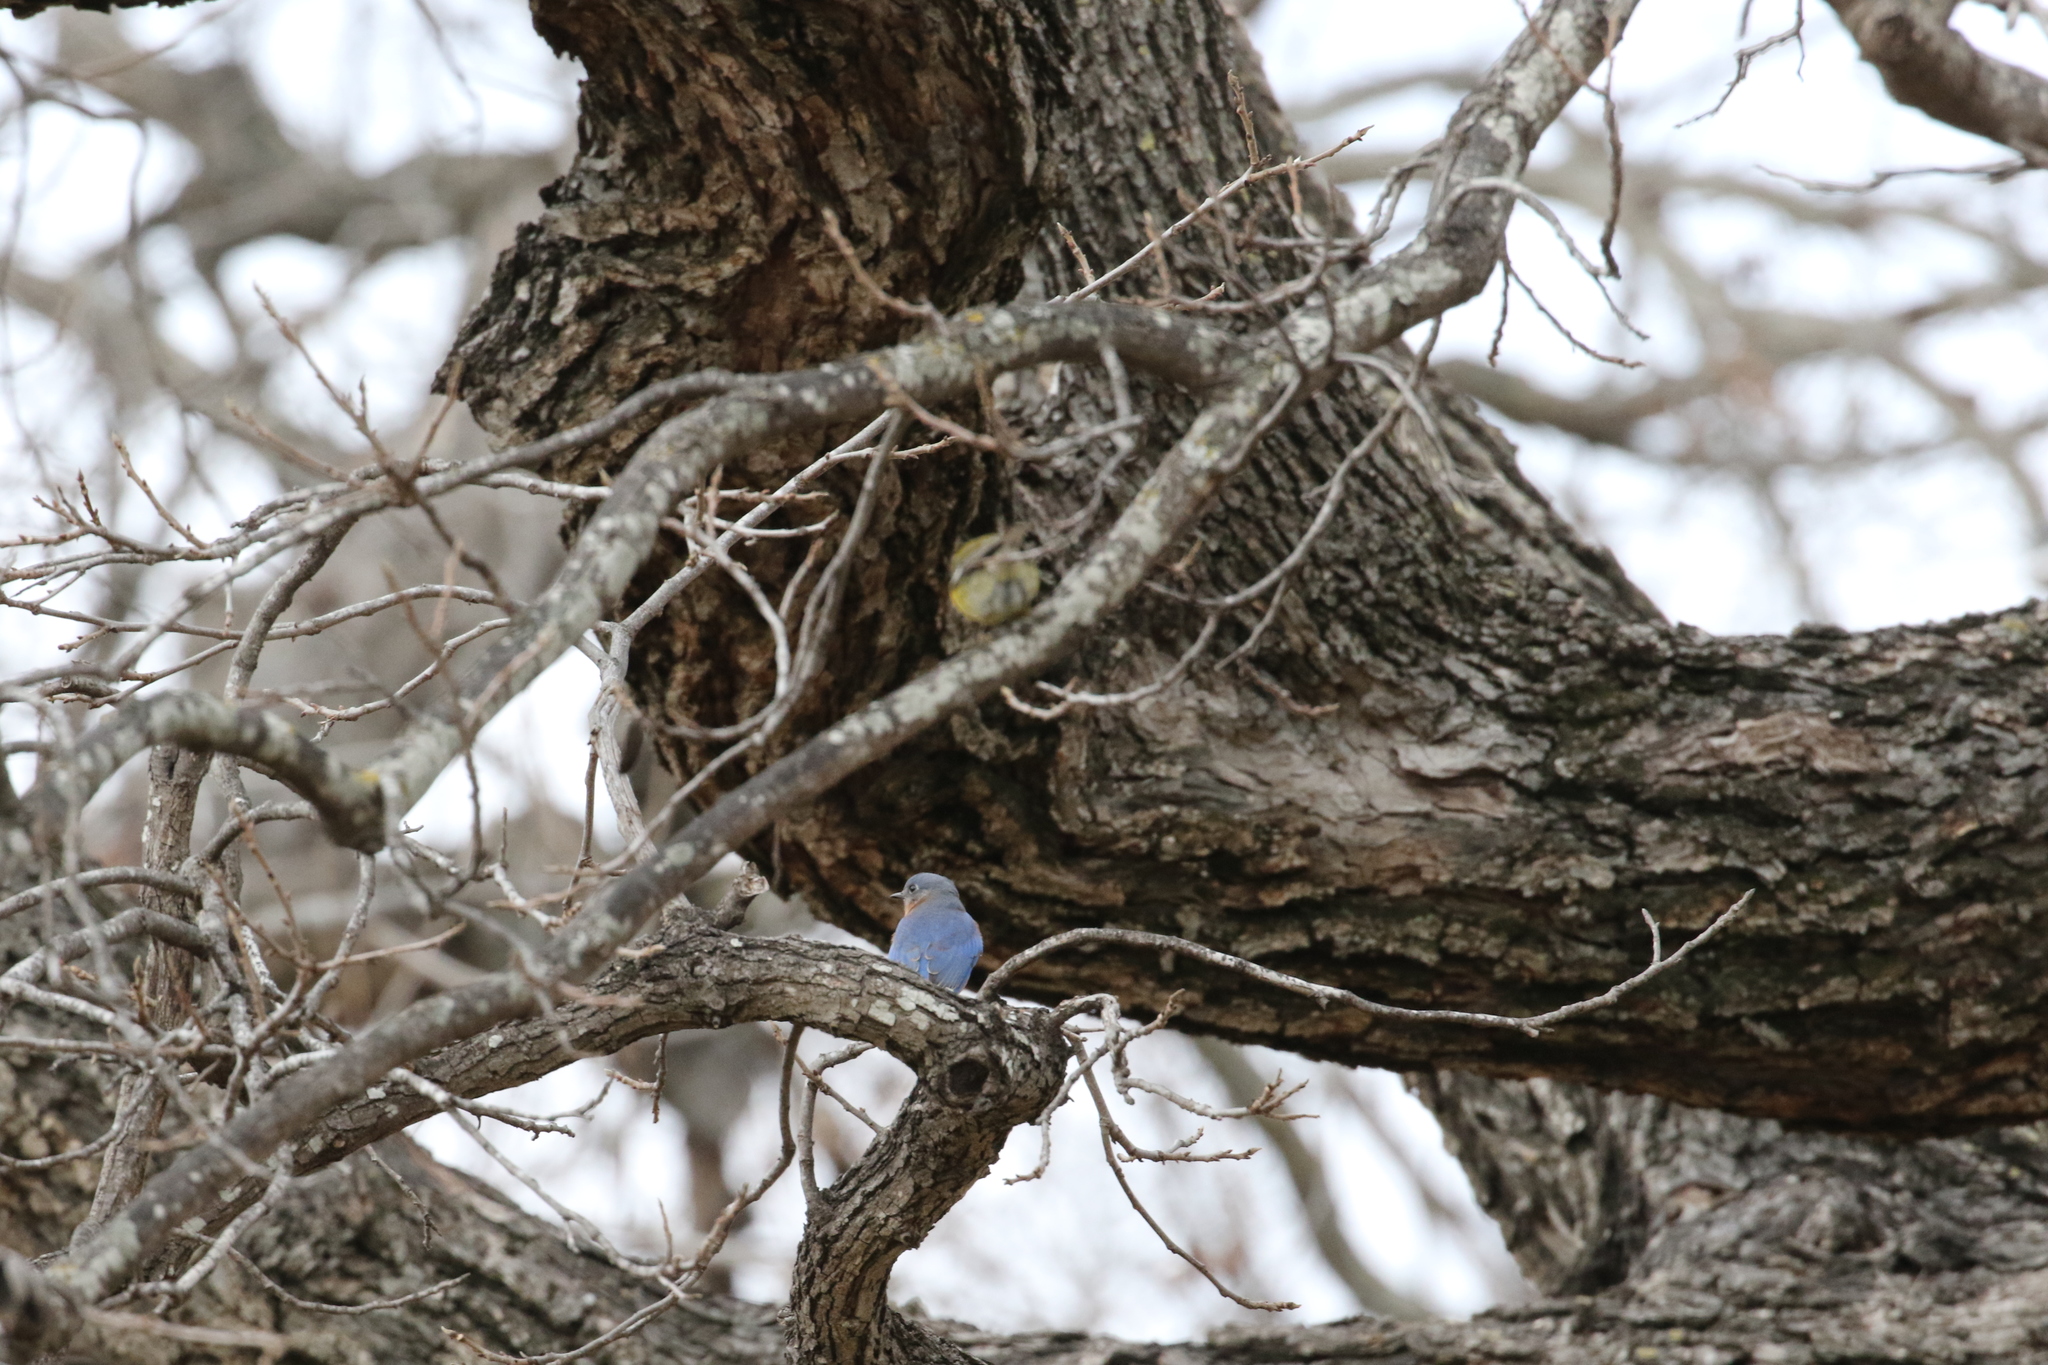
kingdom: Animalia
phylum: Chordata
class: Aves
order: Passeriformes
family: Turdidae
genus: Sialia
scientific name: Sialia sialis
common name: Eastern bluebird
